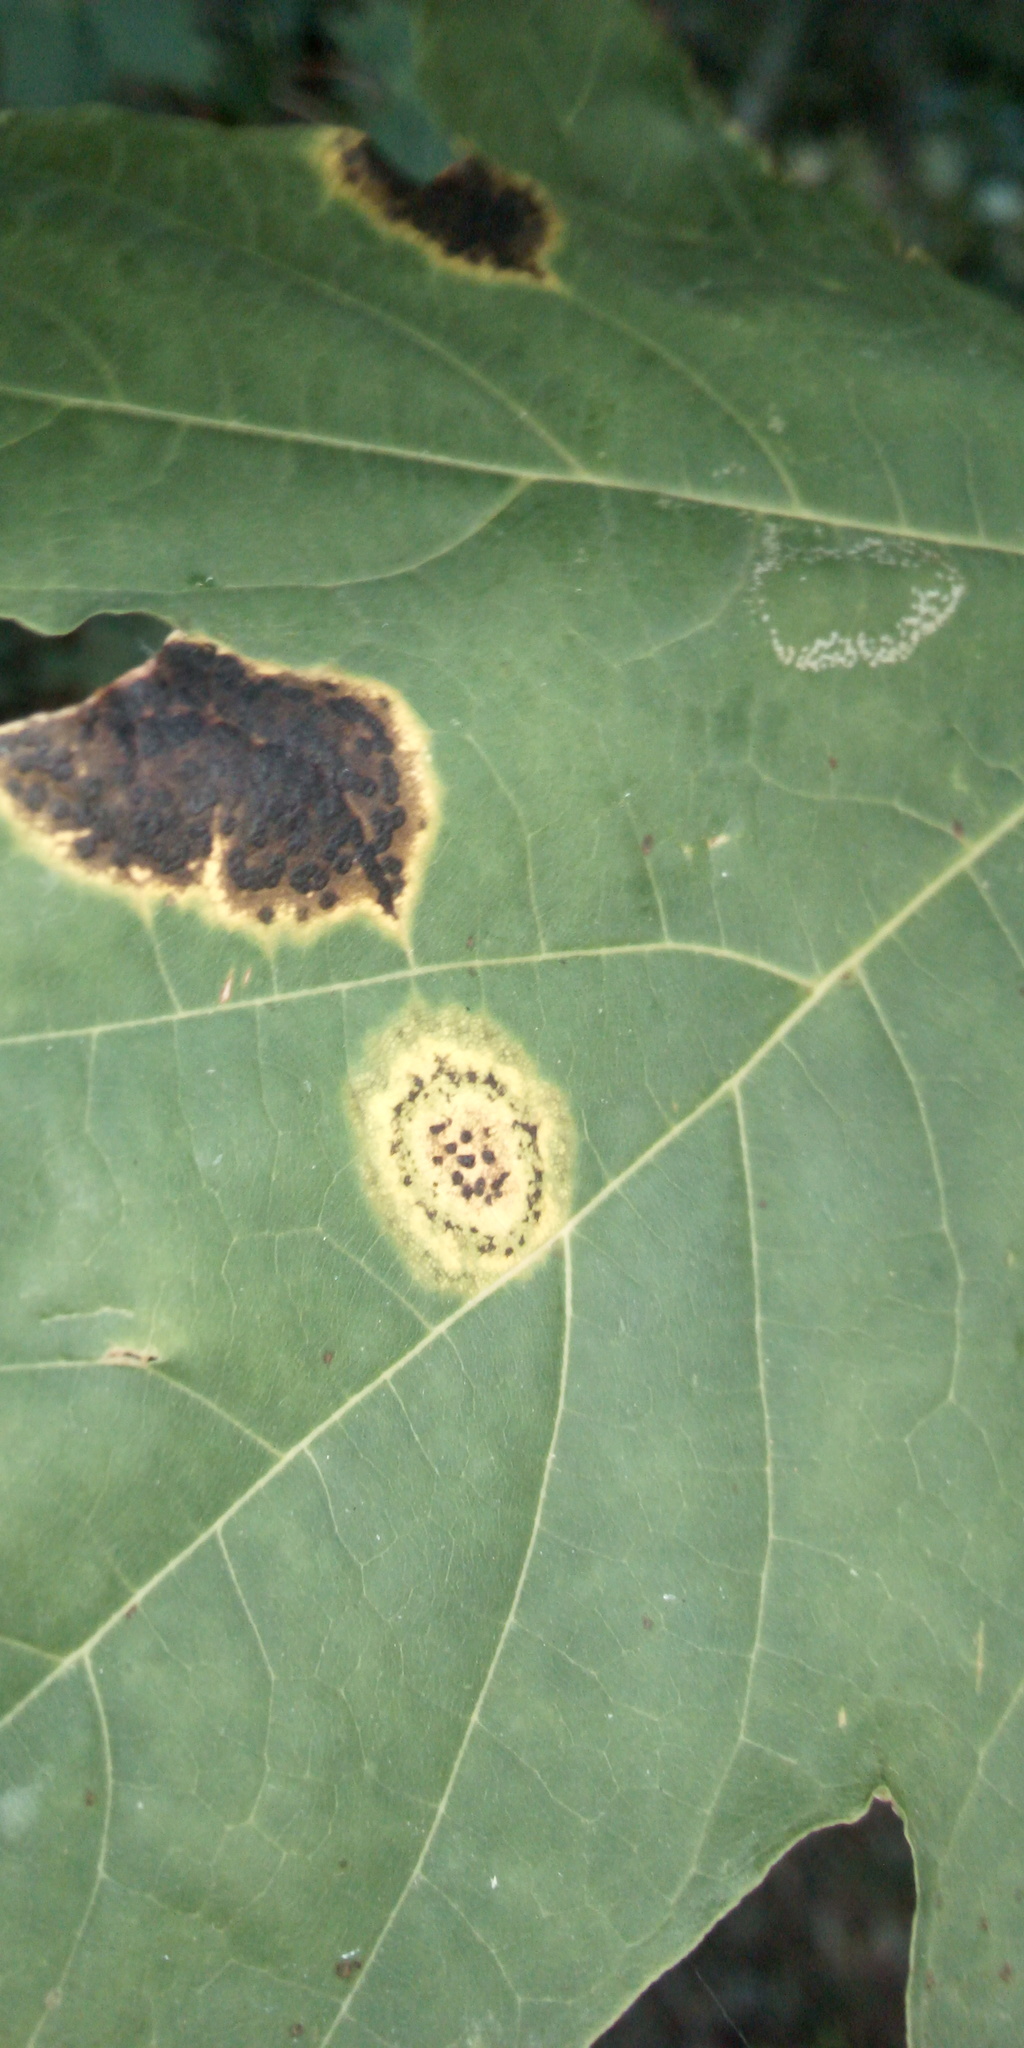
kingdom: Fungi
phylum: Ascomycota
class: Leotiomycetes
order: Rhytismatales
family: Rhytismataceae
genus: Rhytisma
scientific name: Rhytisma acerinum
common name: European tar spot
